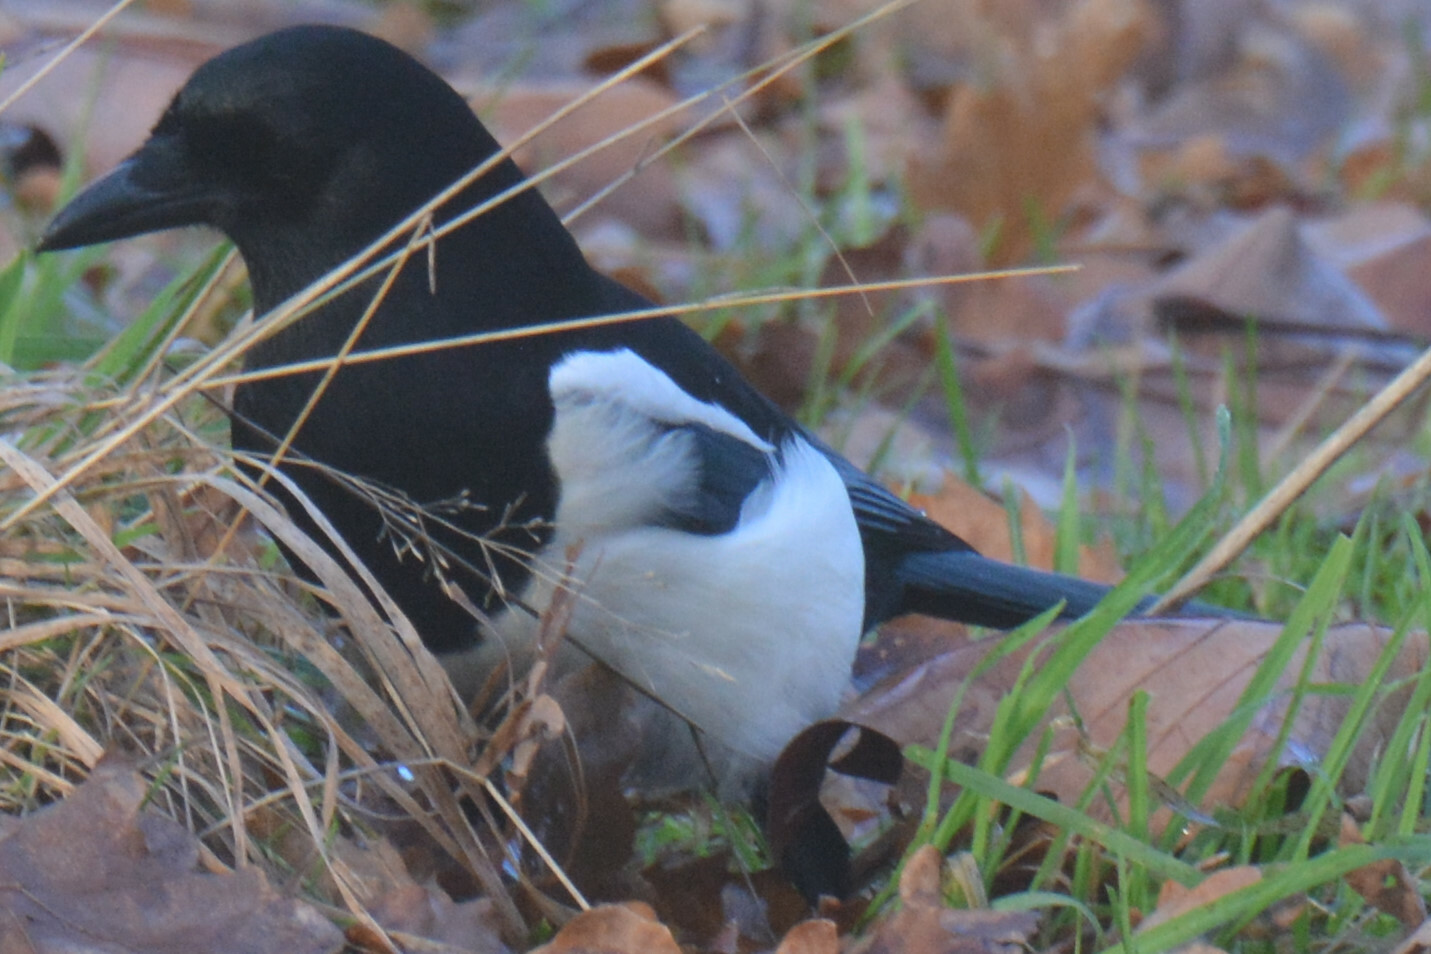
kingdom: Animalia
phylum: Chordata
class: Aves
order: Passeriformes
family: Corvidae
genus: Pica
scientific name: Pica pica
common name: Eurasian magpie
